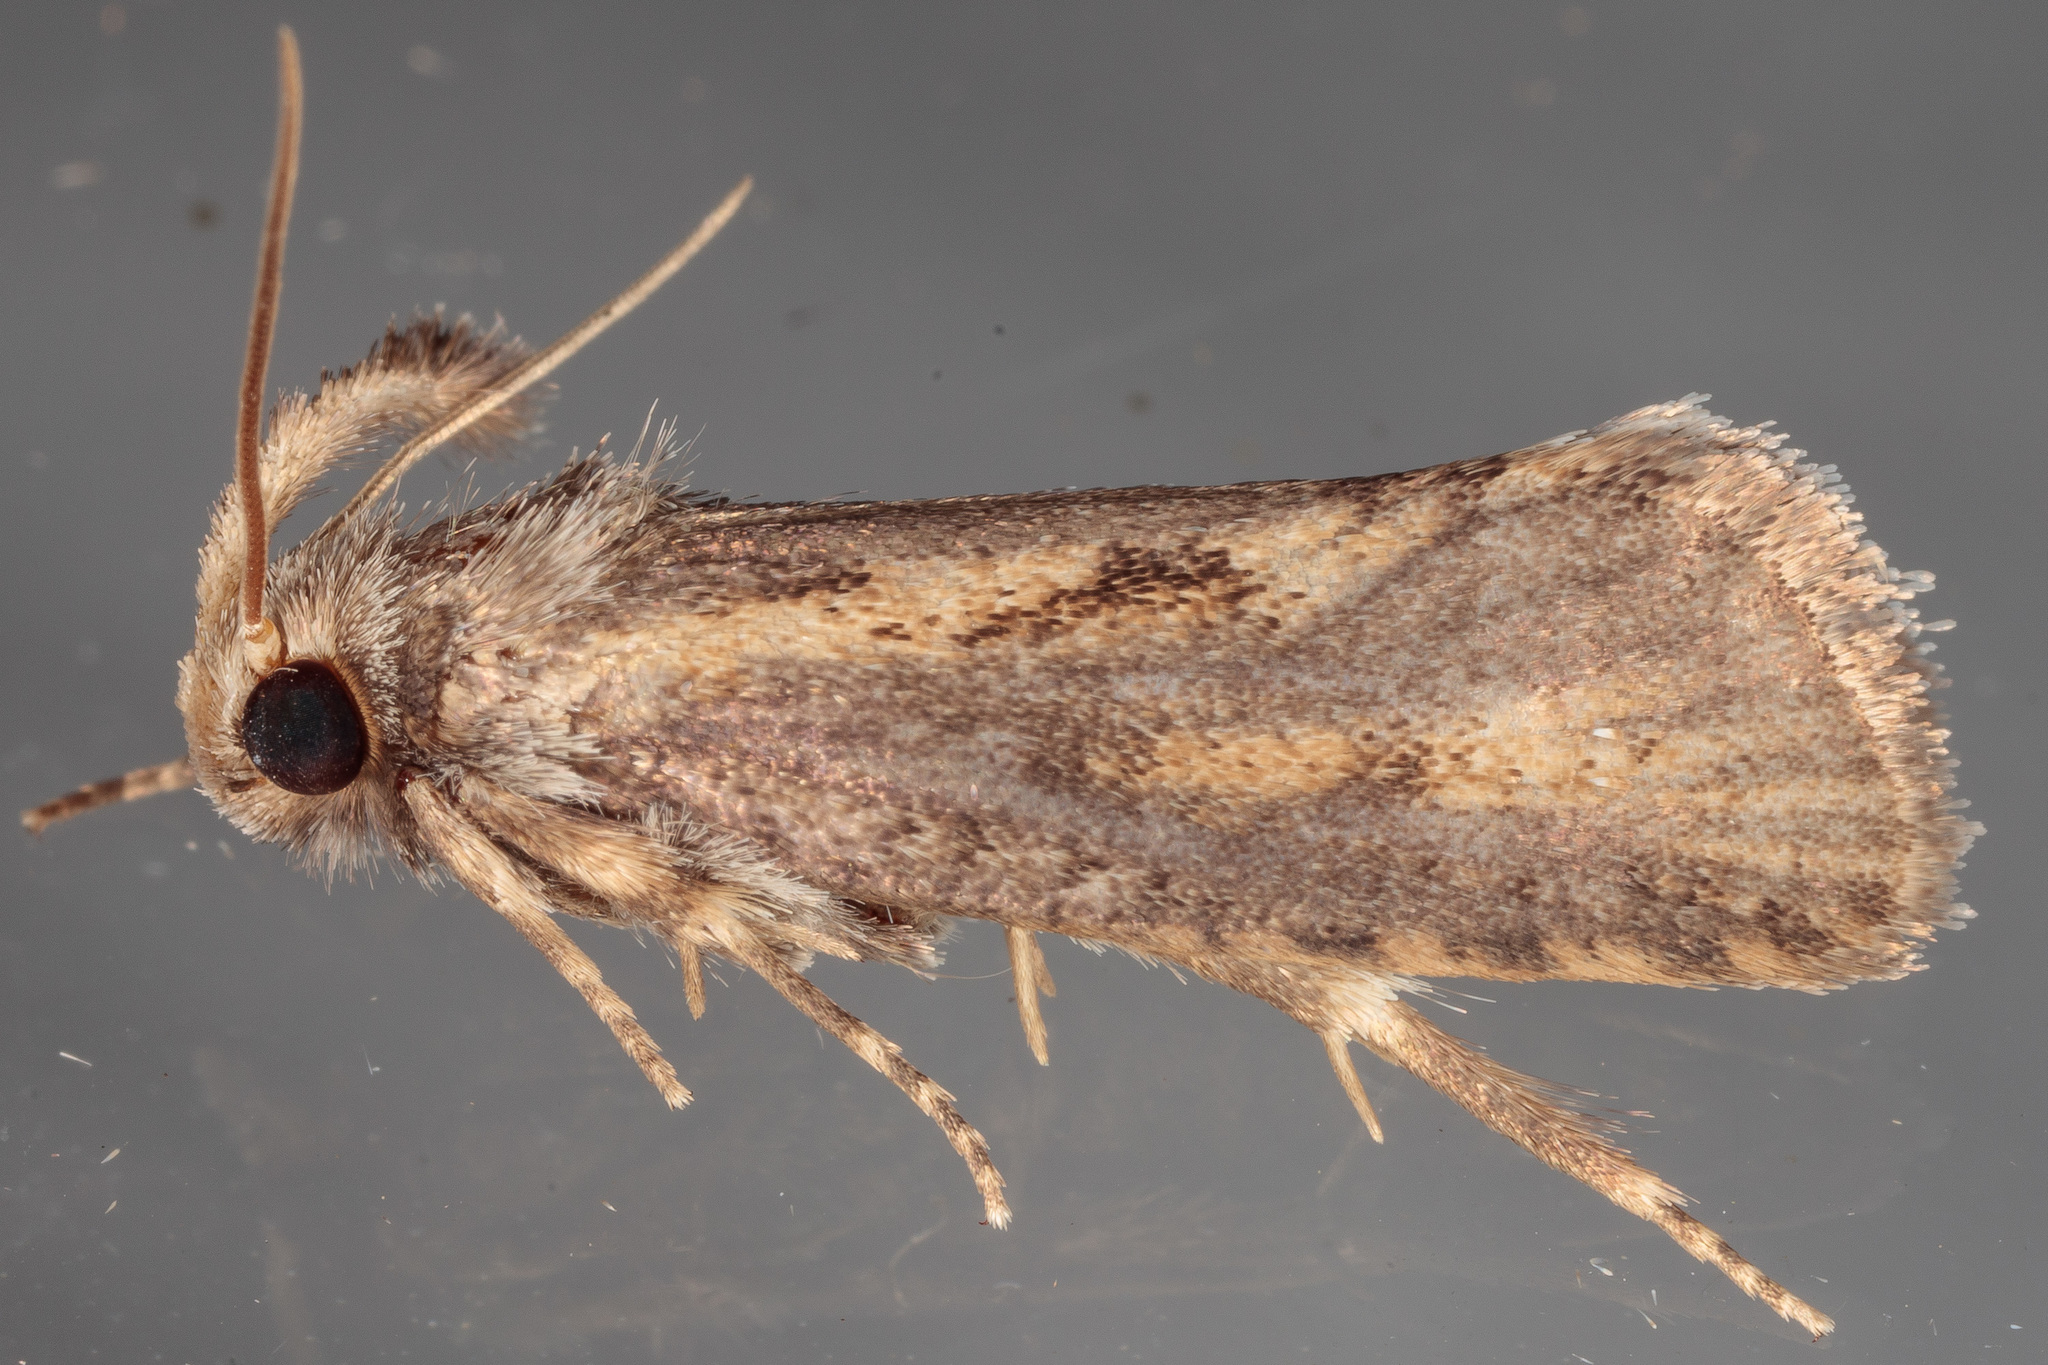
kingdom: Animalia
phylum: Arthropoda
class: Insecta
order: Lepidoptera
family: Tineidae
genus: Acrolophus
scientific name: Acrolophus popeanella
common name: Clemens' grass tubeworm moth
